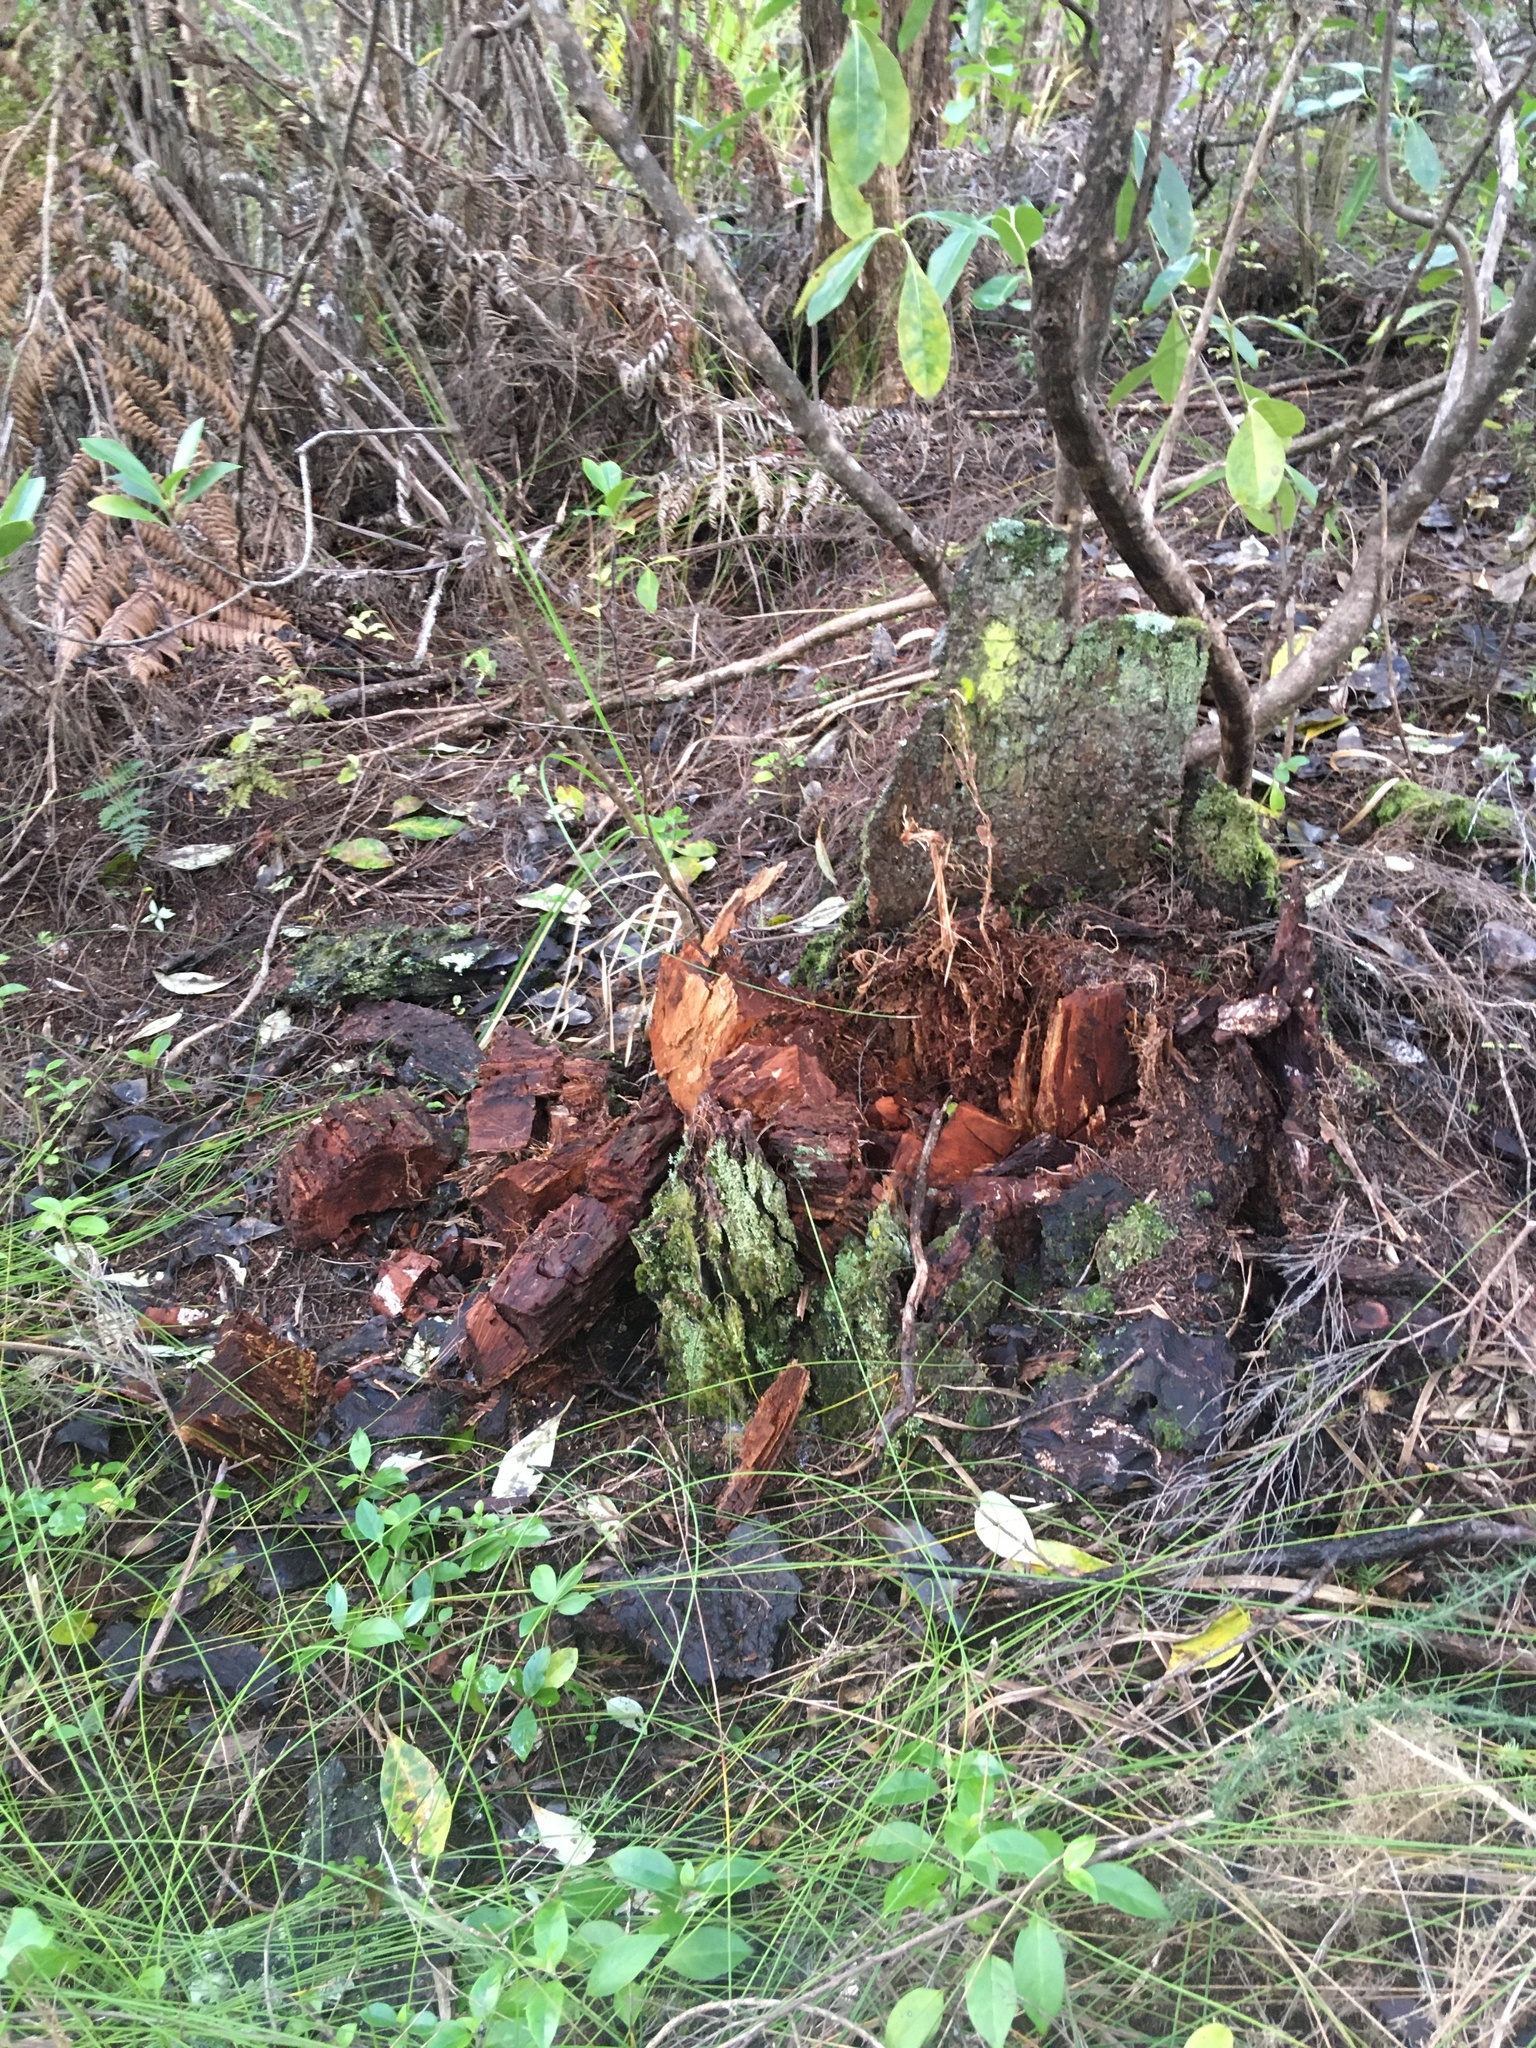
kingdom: Plantae
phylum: Tracheophyta
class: Magnoliopsida
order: Gentianales
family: Rubiaceae
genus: Coprosma
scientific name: Coprosma lucida
